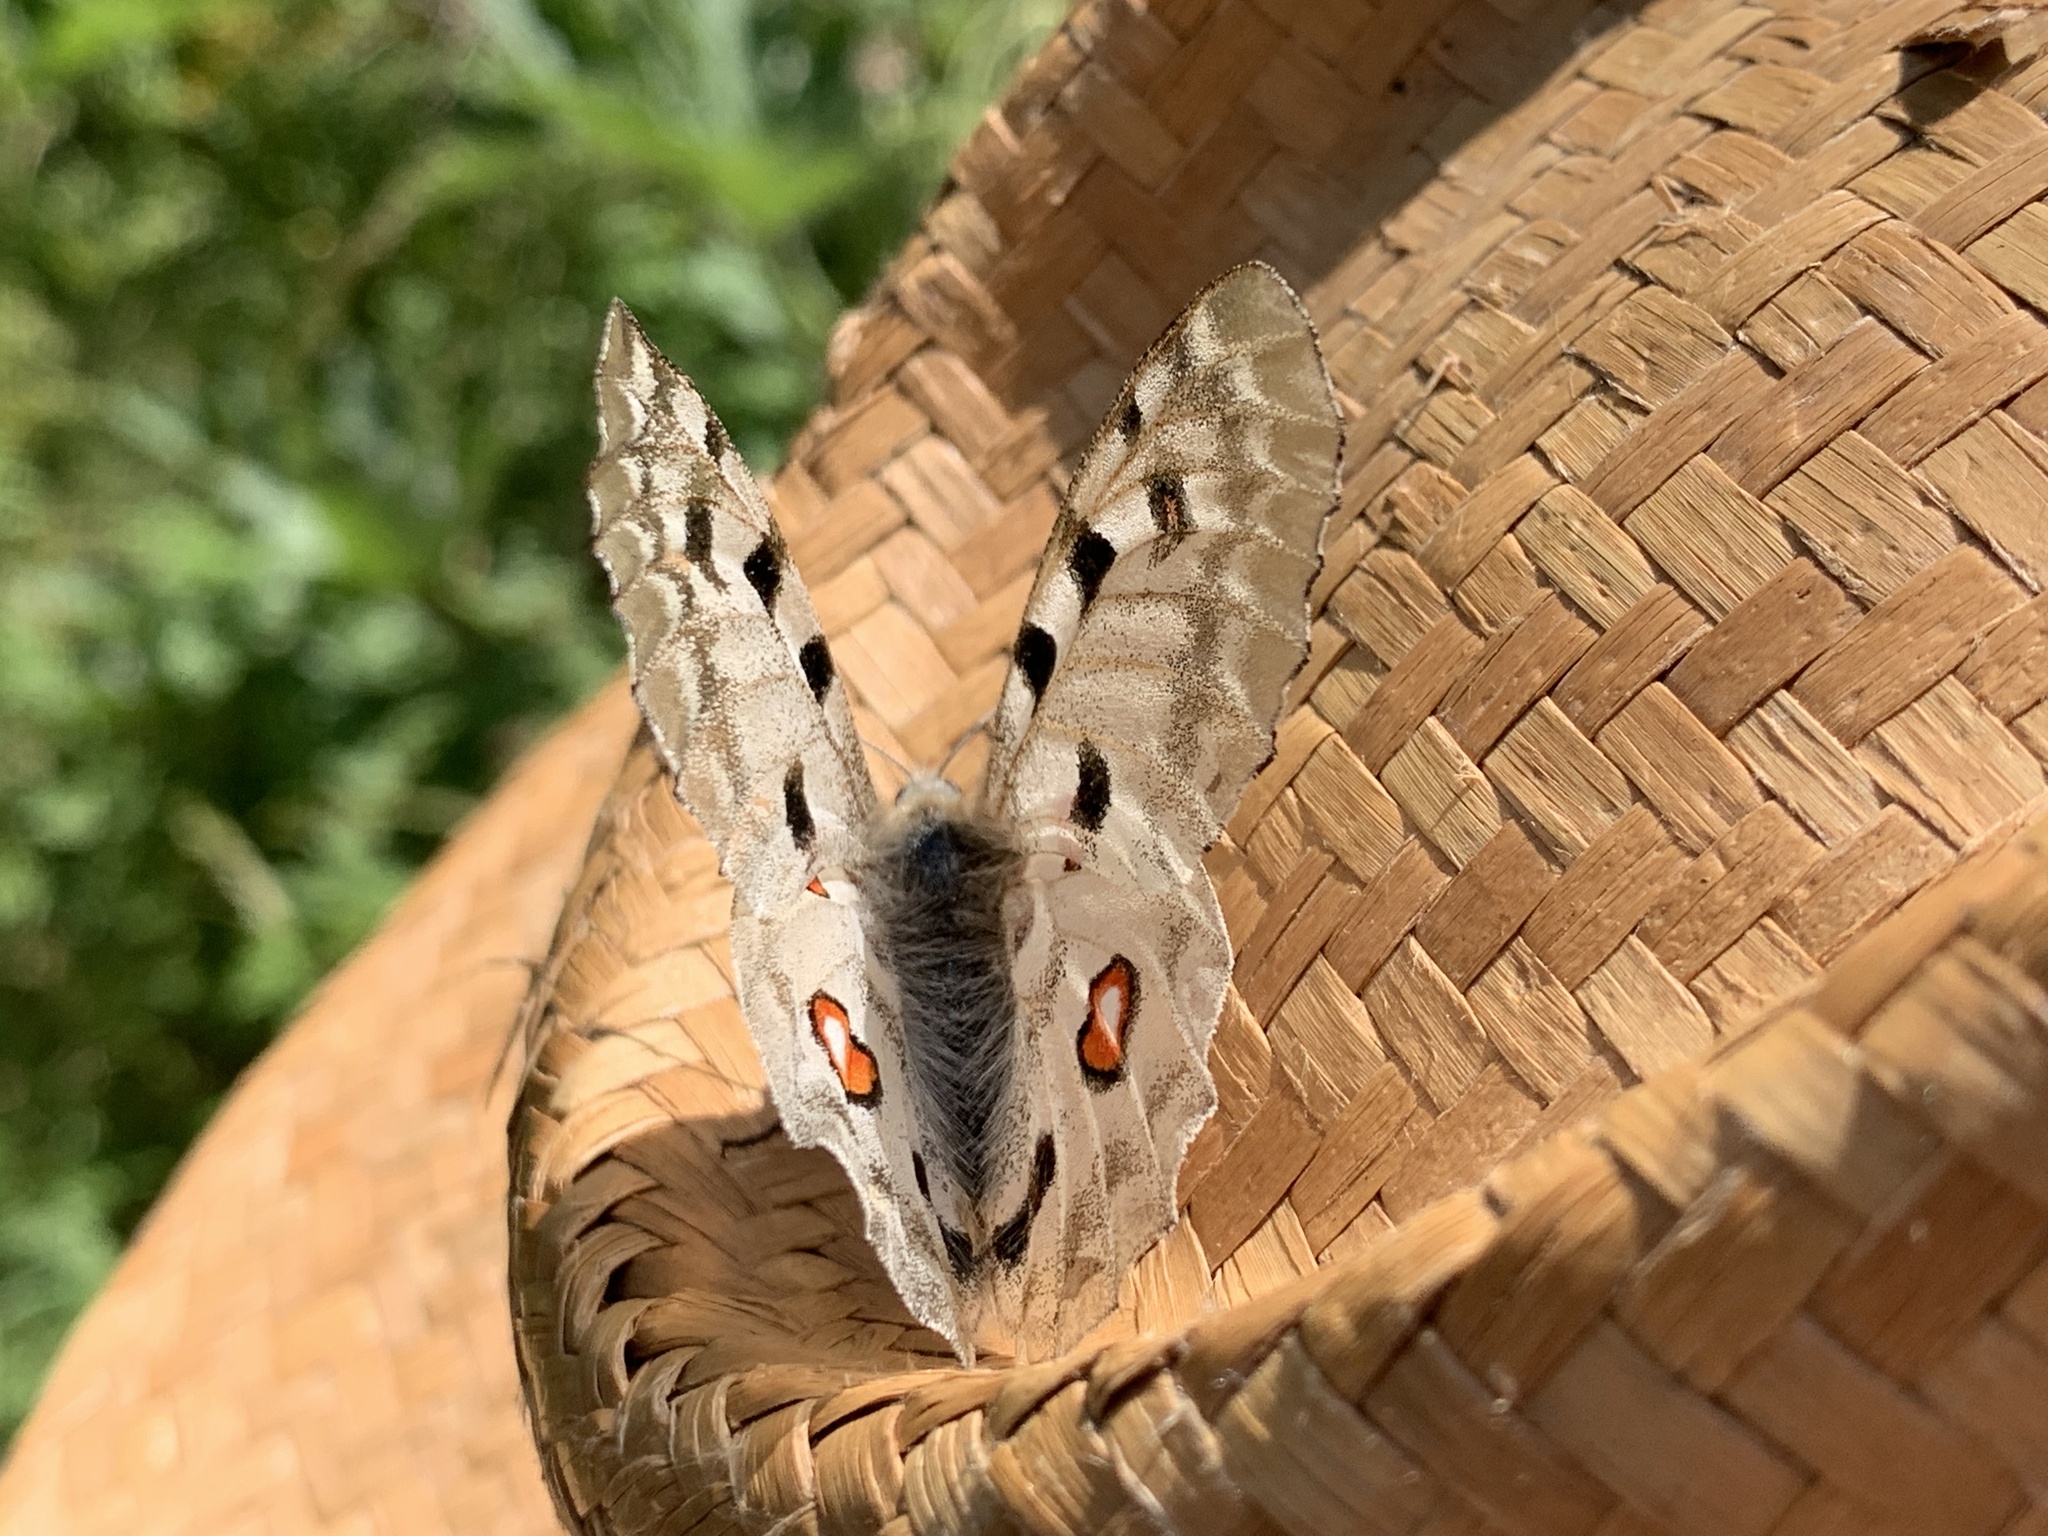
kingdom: Animalia
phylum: Arthropoda
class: Insecta
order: Lepidoptera
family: Papilionidae
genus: Parnassius
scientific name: Parnassius apollo
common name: Apollo
